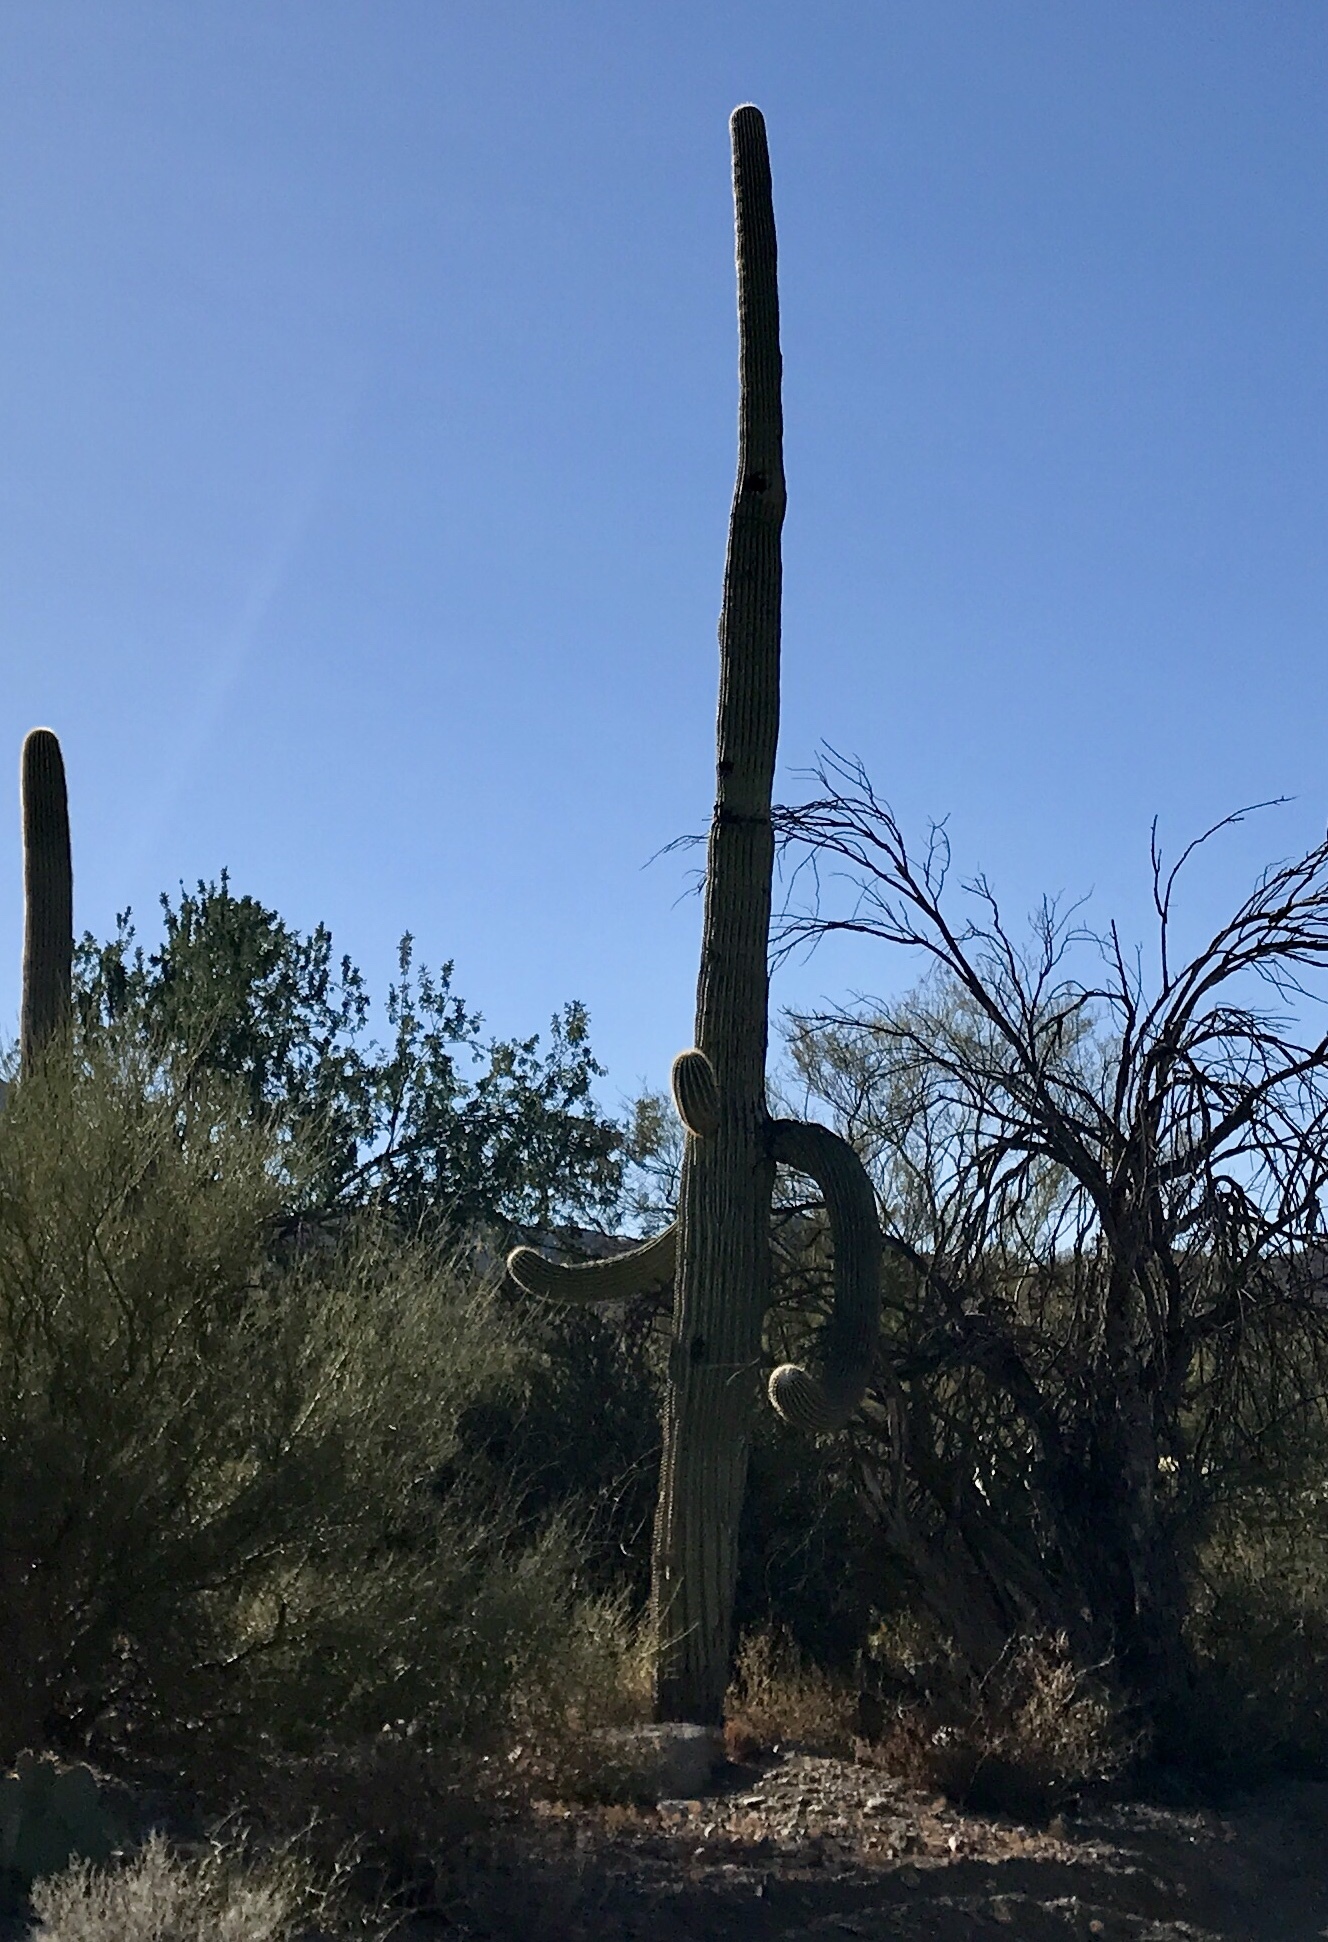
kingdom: Plantae
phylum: Tracheophyta
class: Magnoliopsida
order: Caryophyllales
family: Cactaceae
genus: Carnegiea
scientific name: Carnegiea gigantea
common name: Saguaro
